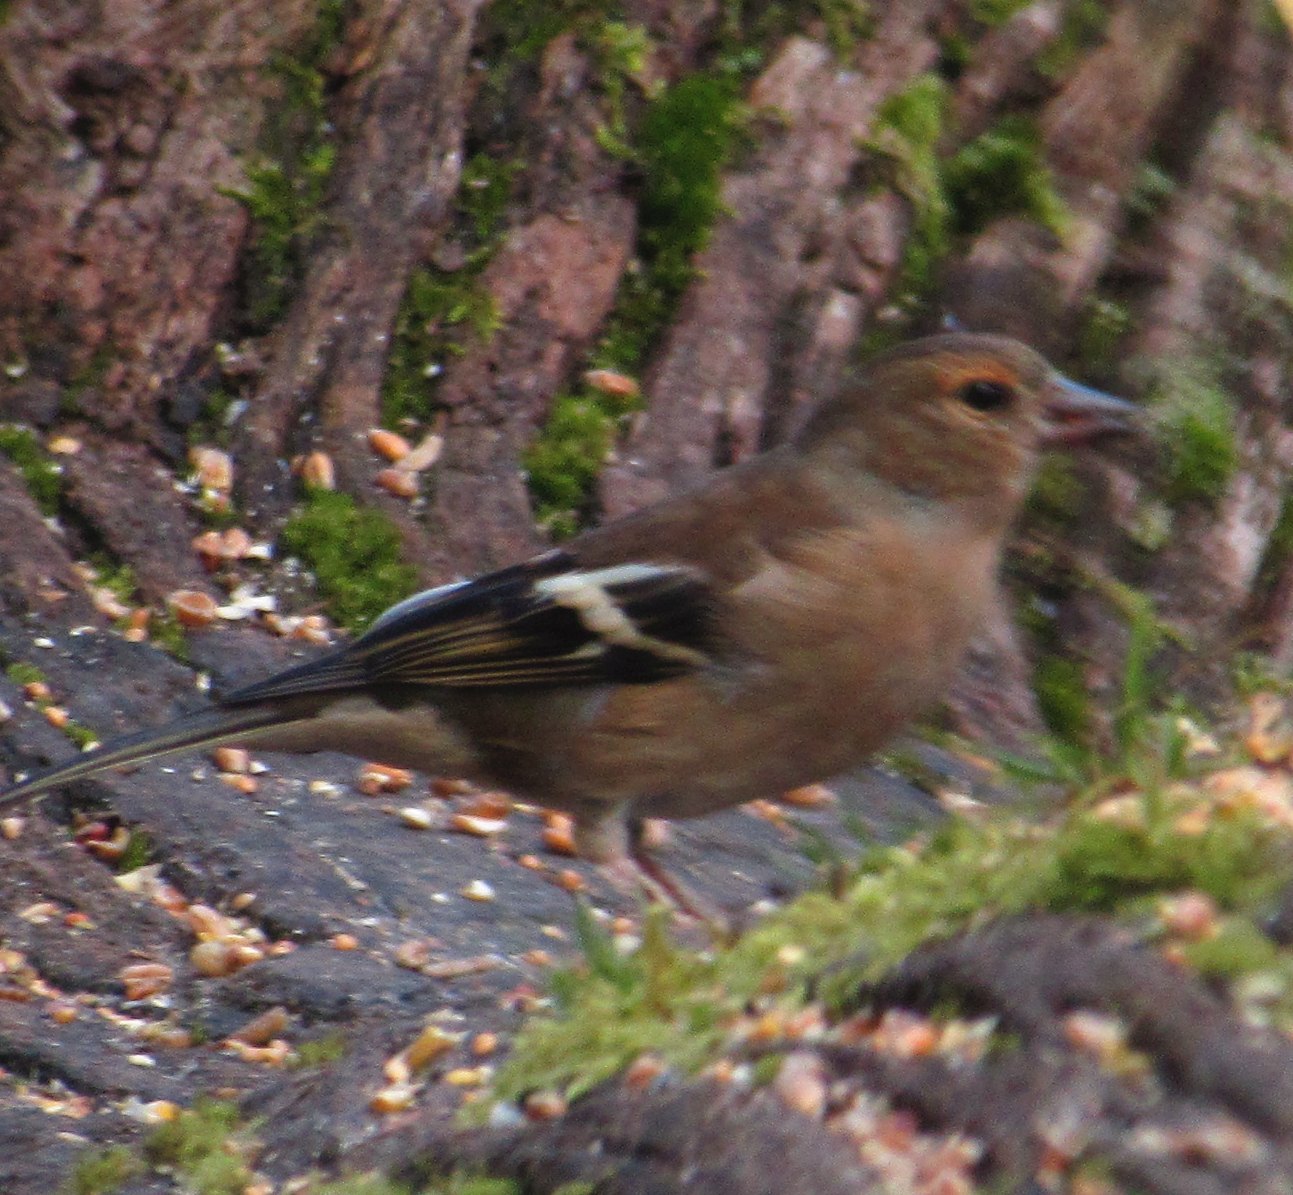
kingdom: Animalia
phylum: Chordata
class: Aves
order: Passeriformes
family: Fringillidae
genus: Fringilla
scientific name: Fringilla coelebs
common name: Common chaffinch
